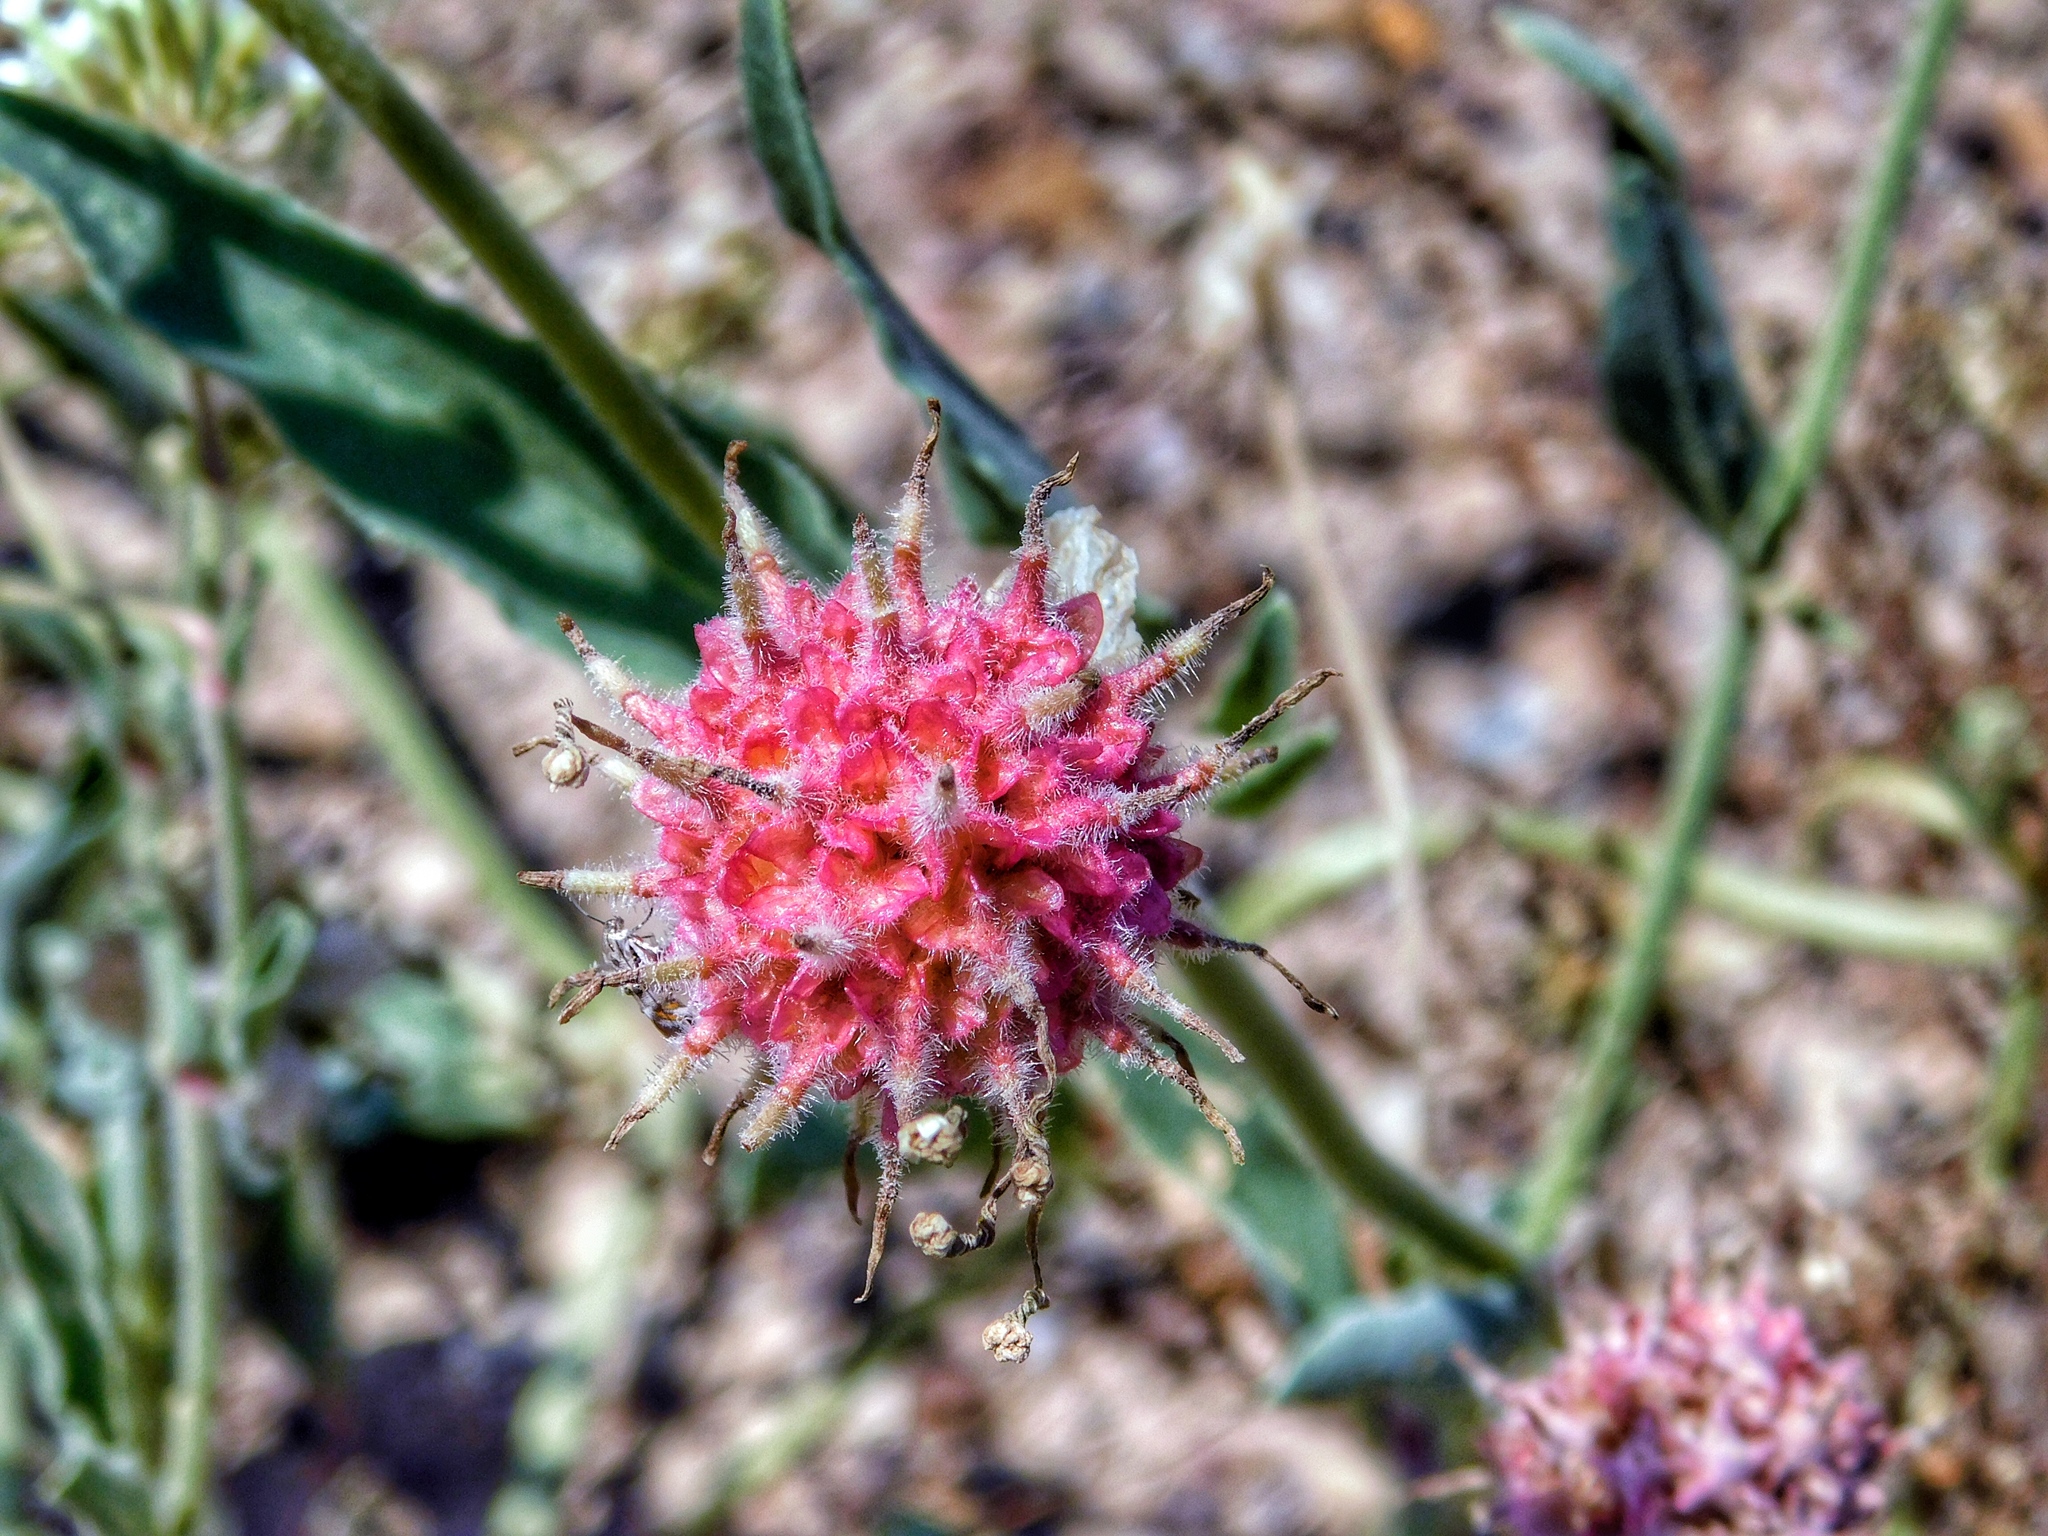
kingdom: Plantae
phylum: Tracheophyta
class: Magnoliopsida
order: Caryophyllales
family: Nyctaginaceae
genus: Abronia
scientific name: Abronia fragrans
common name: Fragrant sand-verbena
